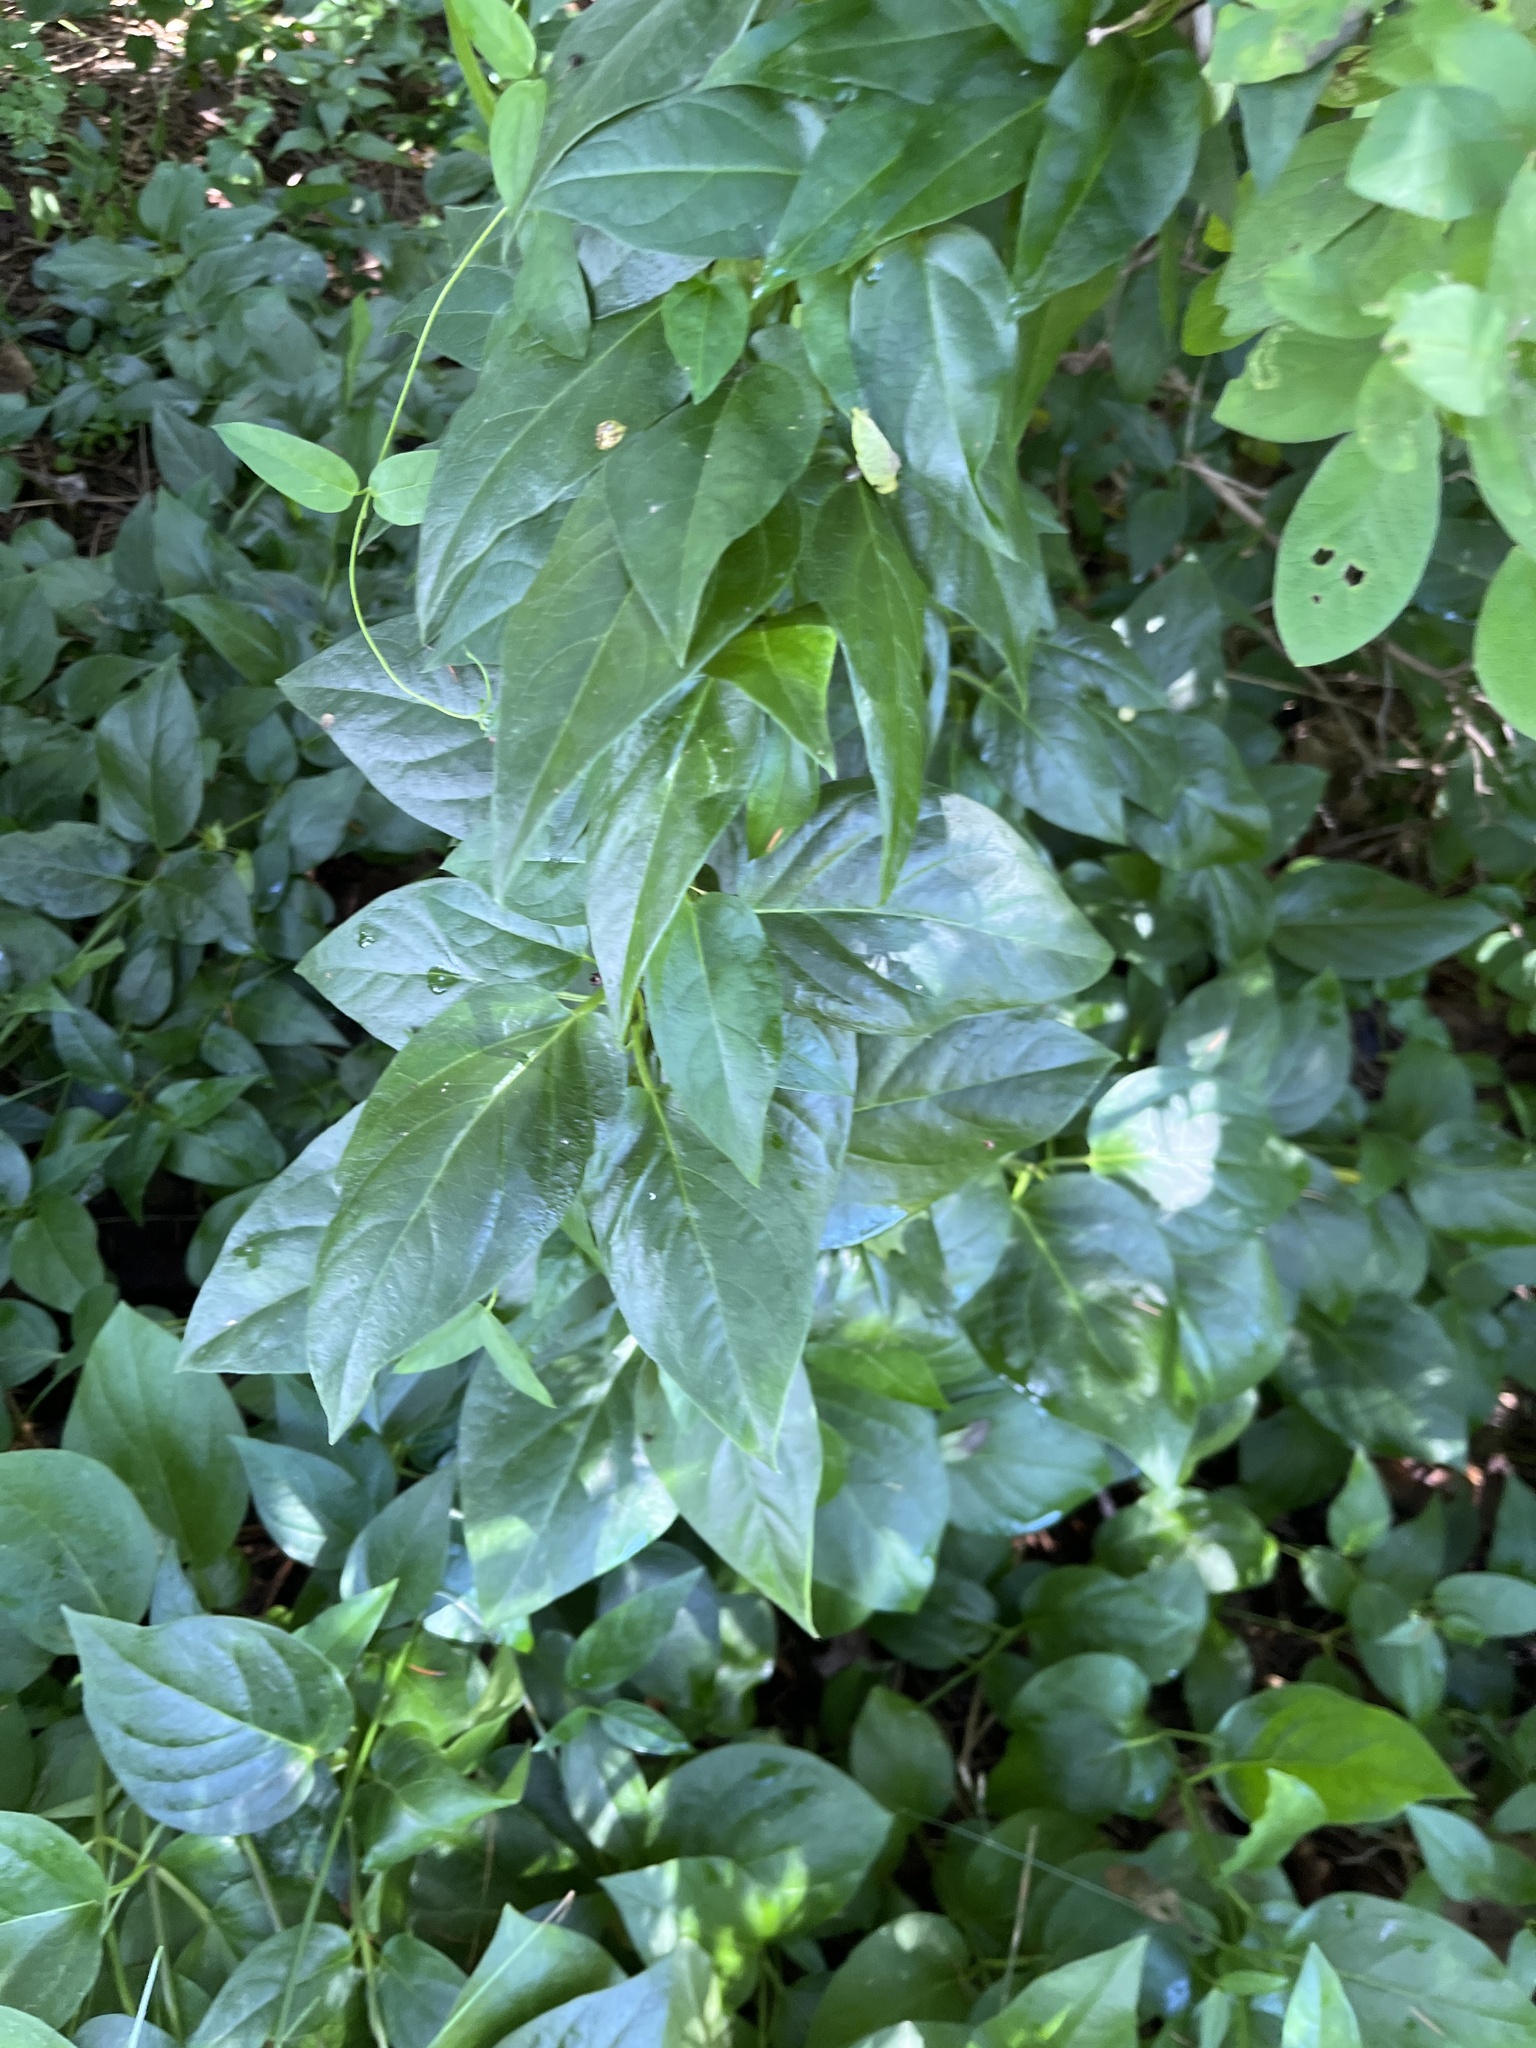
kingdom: Plantae
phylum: Tracheophyta
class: Magnoliopsida
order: Gentianales
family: Apocynaceae
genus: Vincetoxicum
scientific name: Vincetoxicum nigrum
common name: Black swallow-wort
